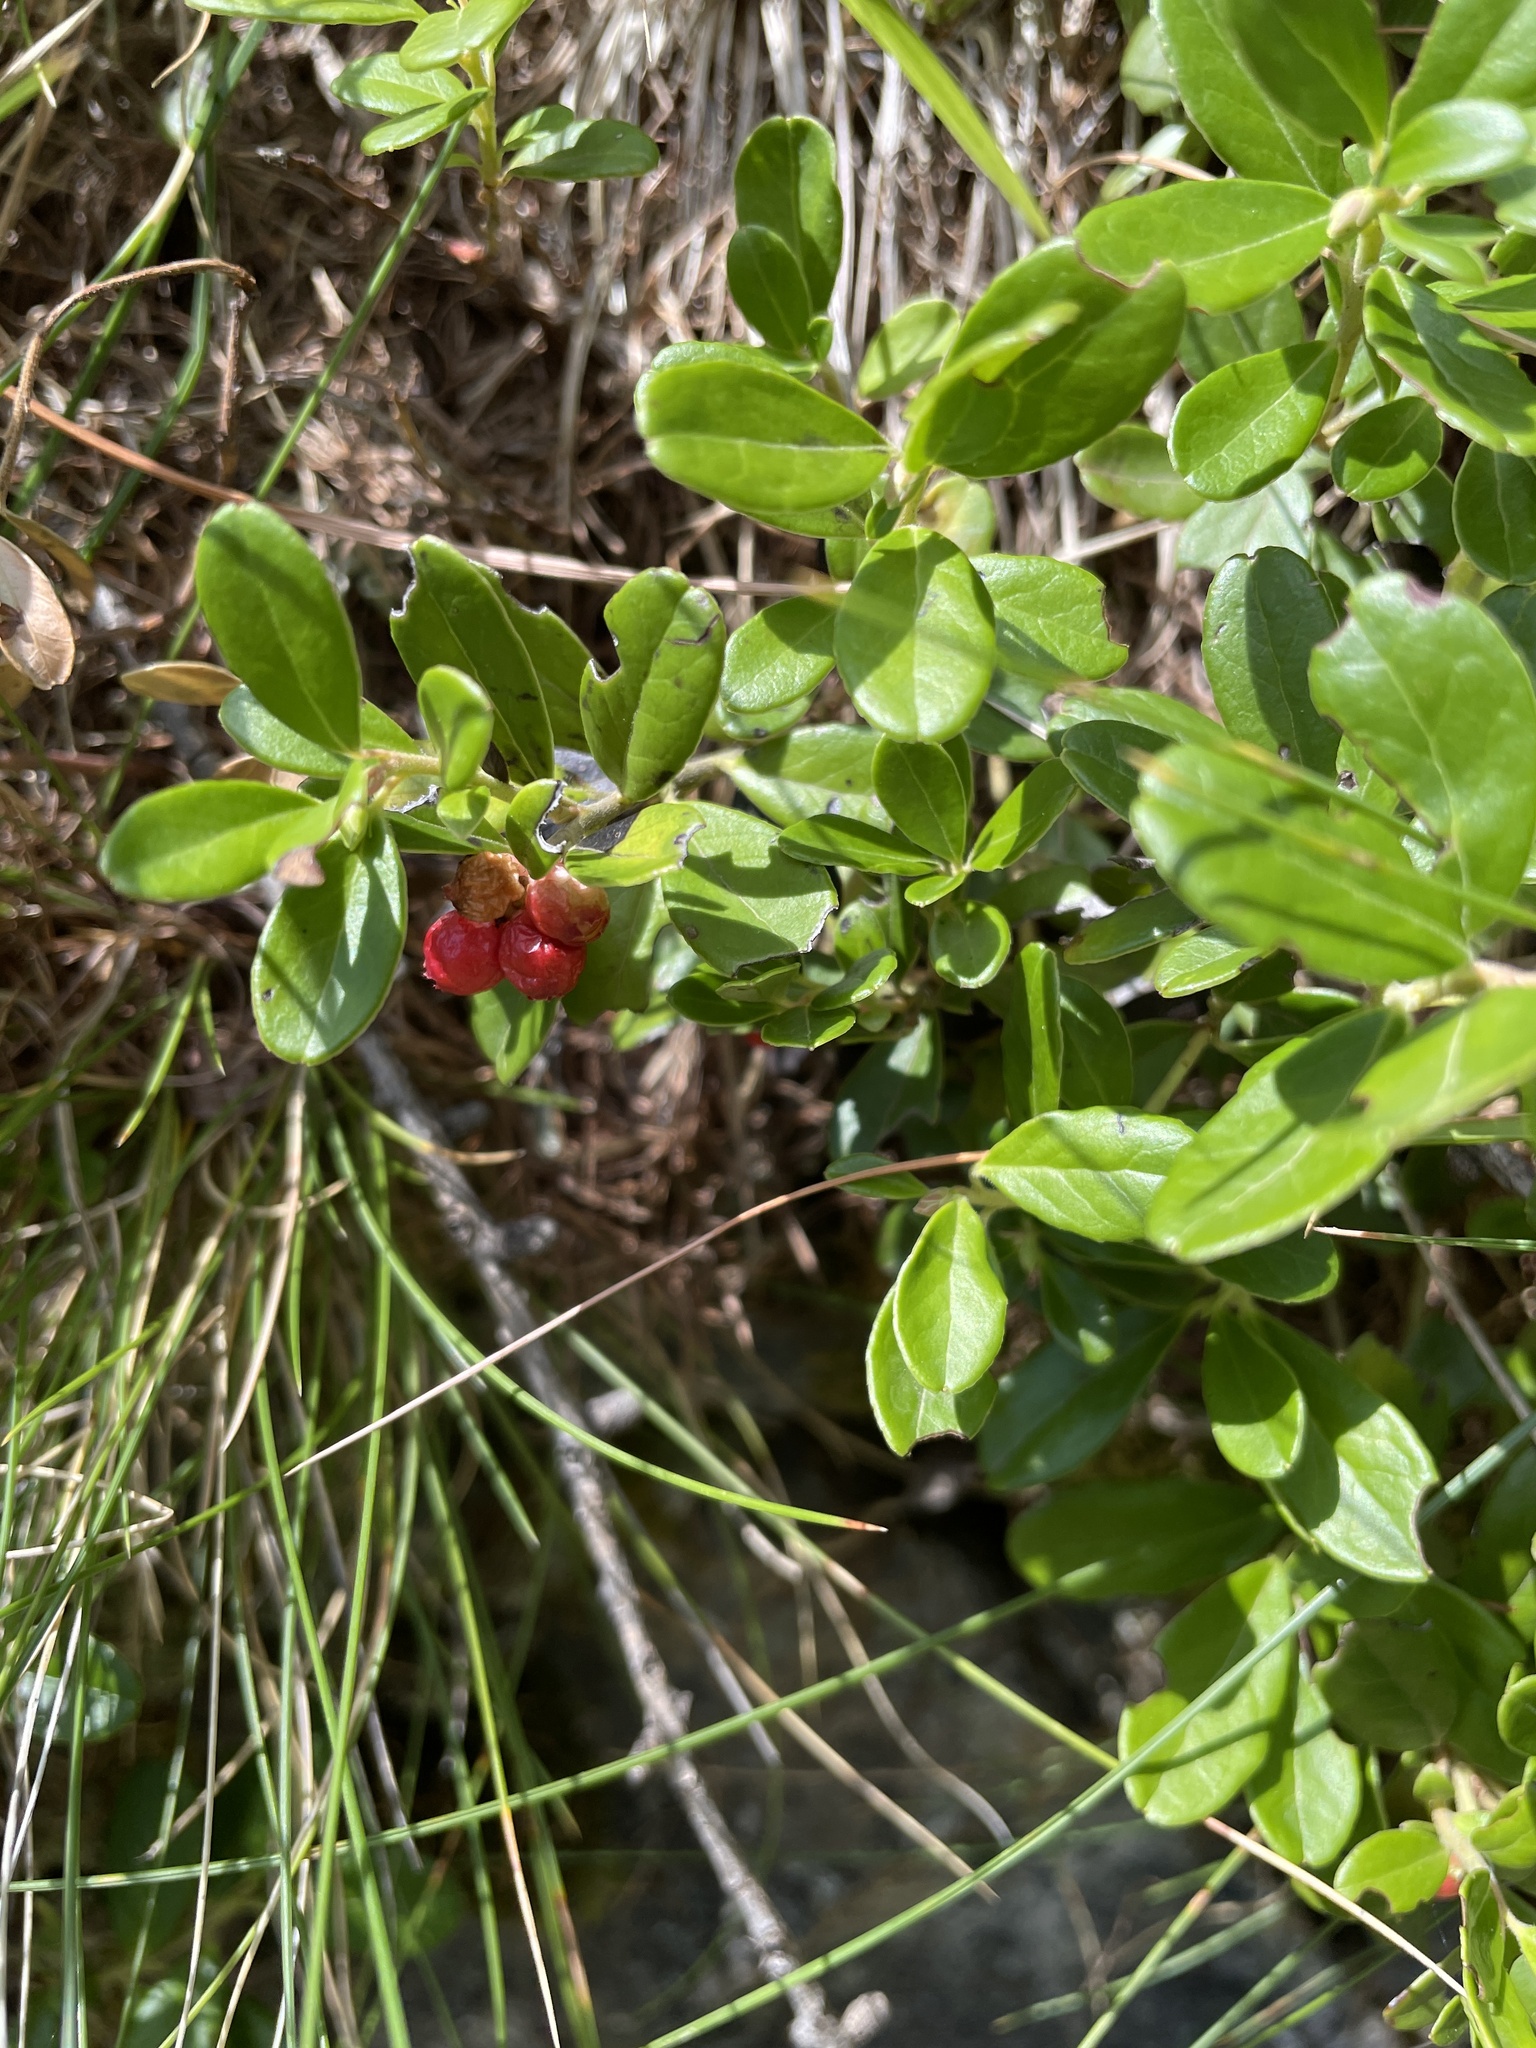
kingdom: Plantae
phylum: Tracheophyta
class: Magnoliopsida
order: Ericales
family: Ericaceae
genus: Vaccinium
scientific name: Vaccinium vitis-idaea
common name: Cowberry
